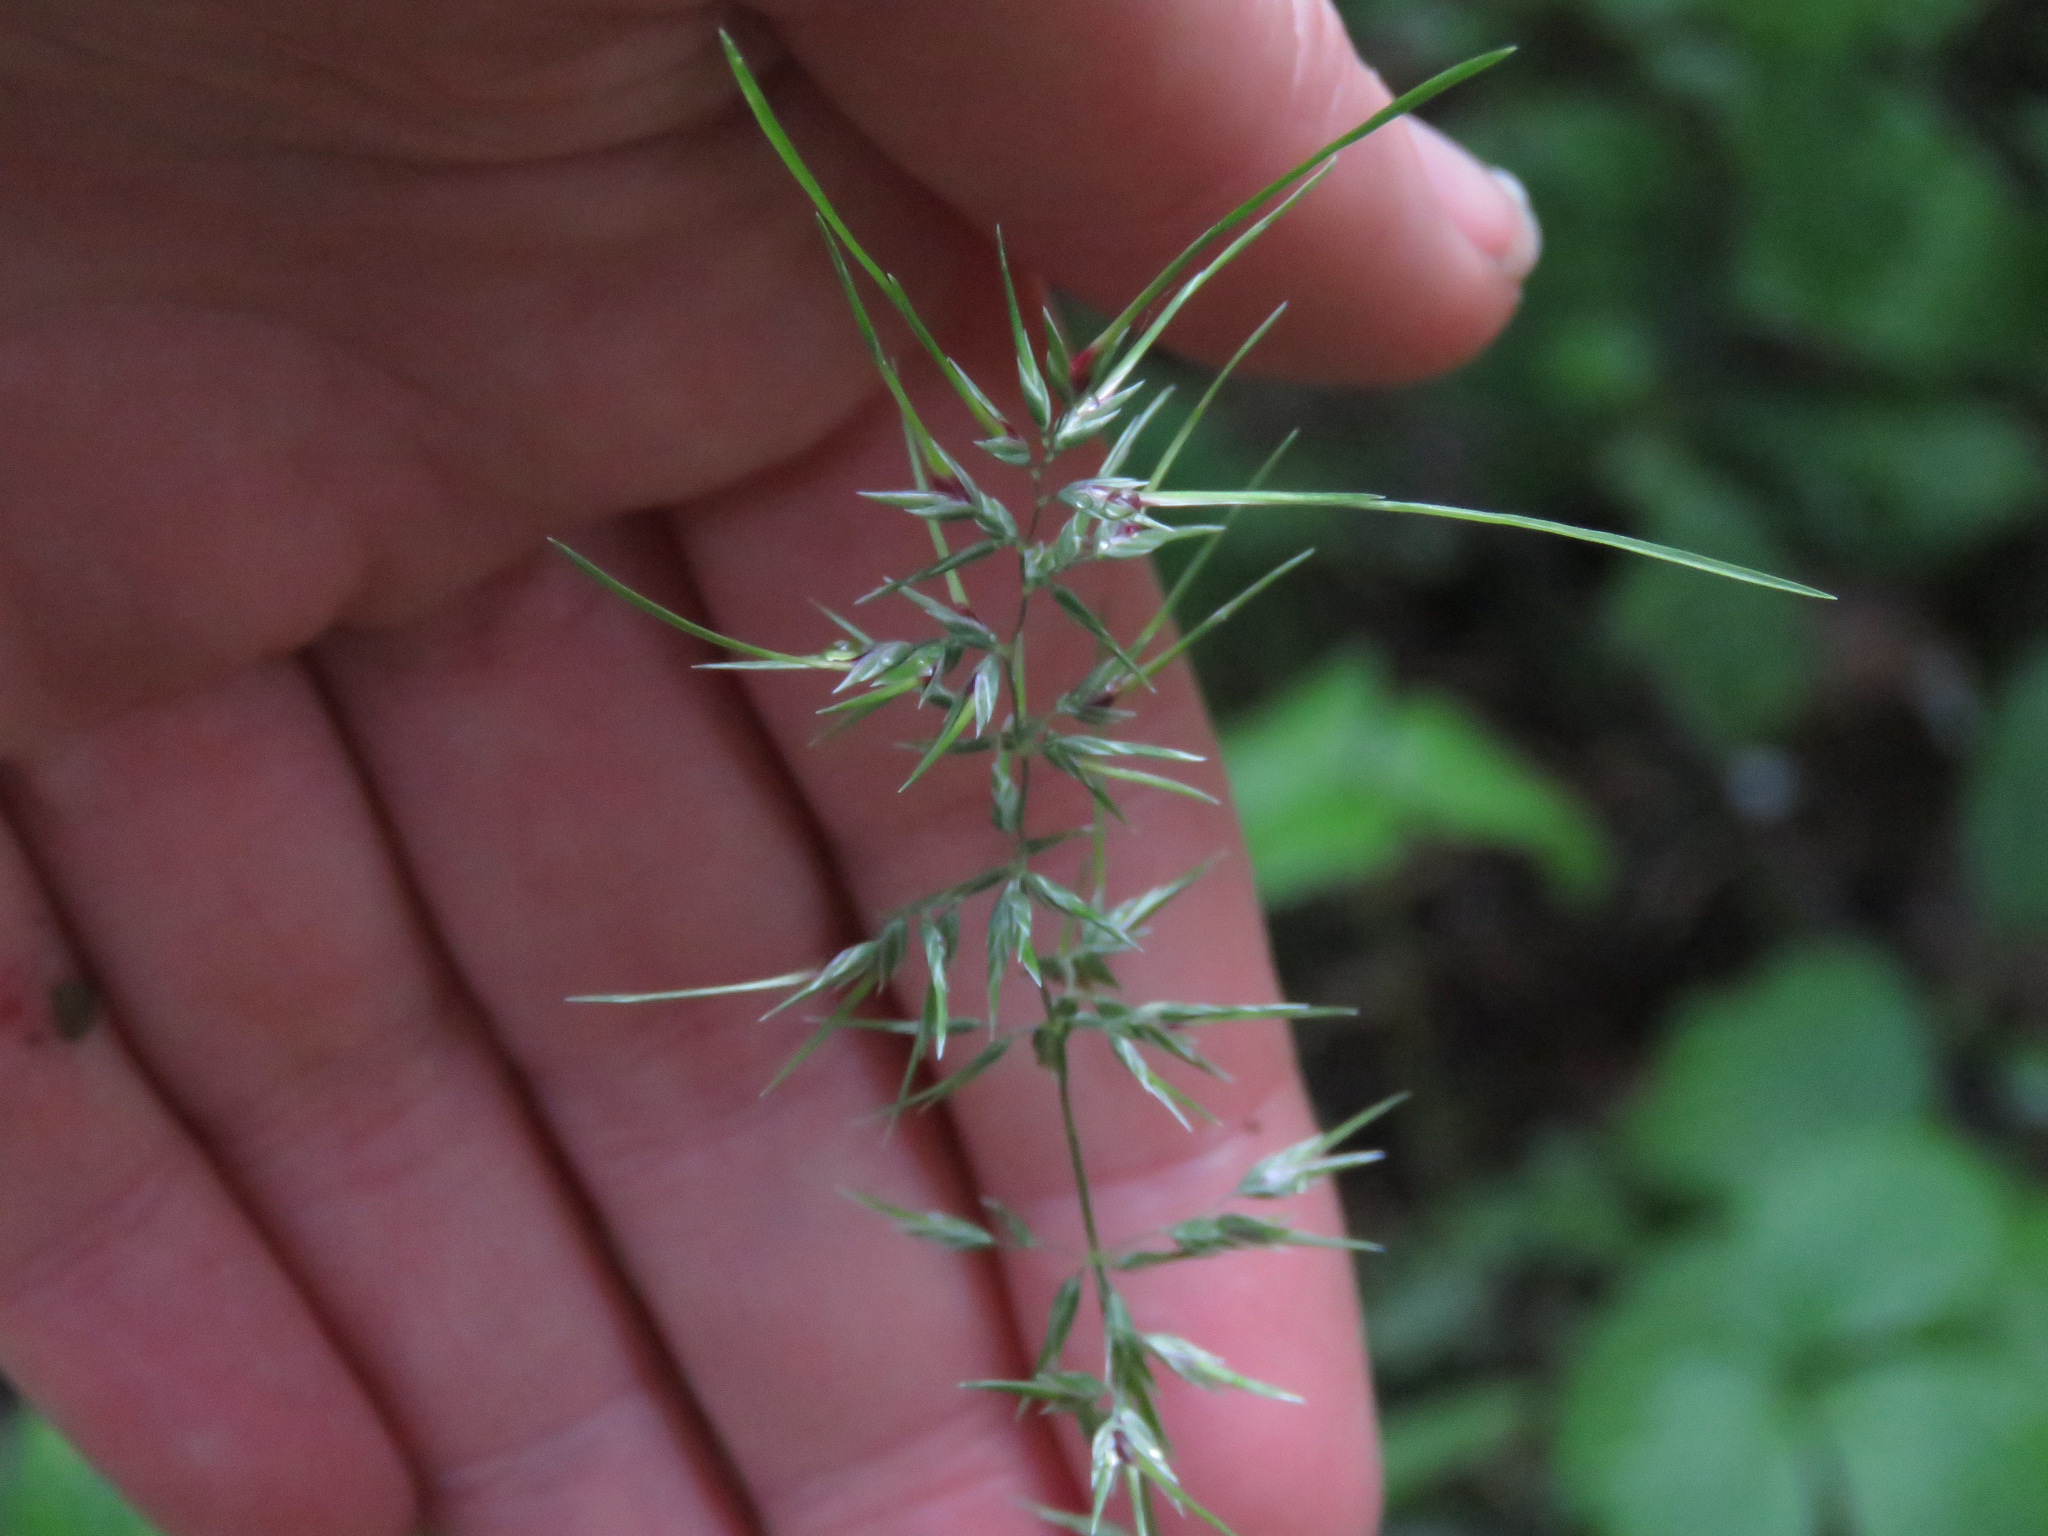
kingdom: Plantae
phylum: Tracheophyta
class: Liliopsida
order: Poales
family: Poaceae
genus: Poa
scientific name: Poa bulbosa
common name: Bulbous bluegrass
